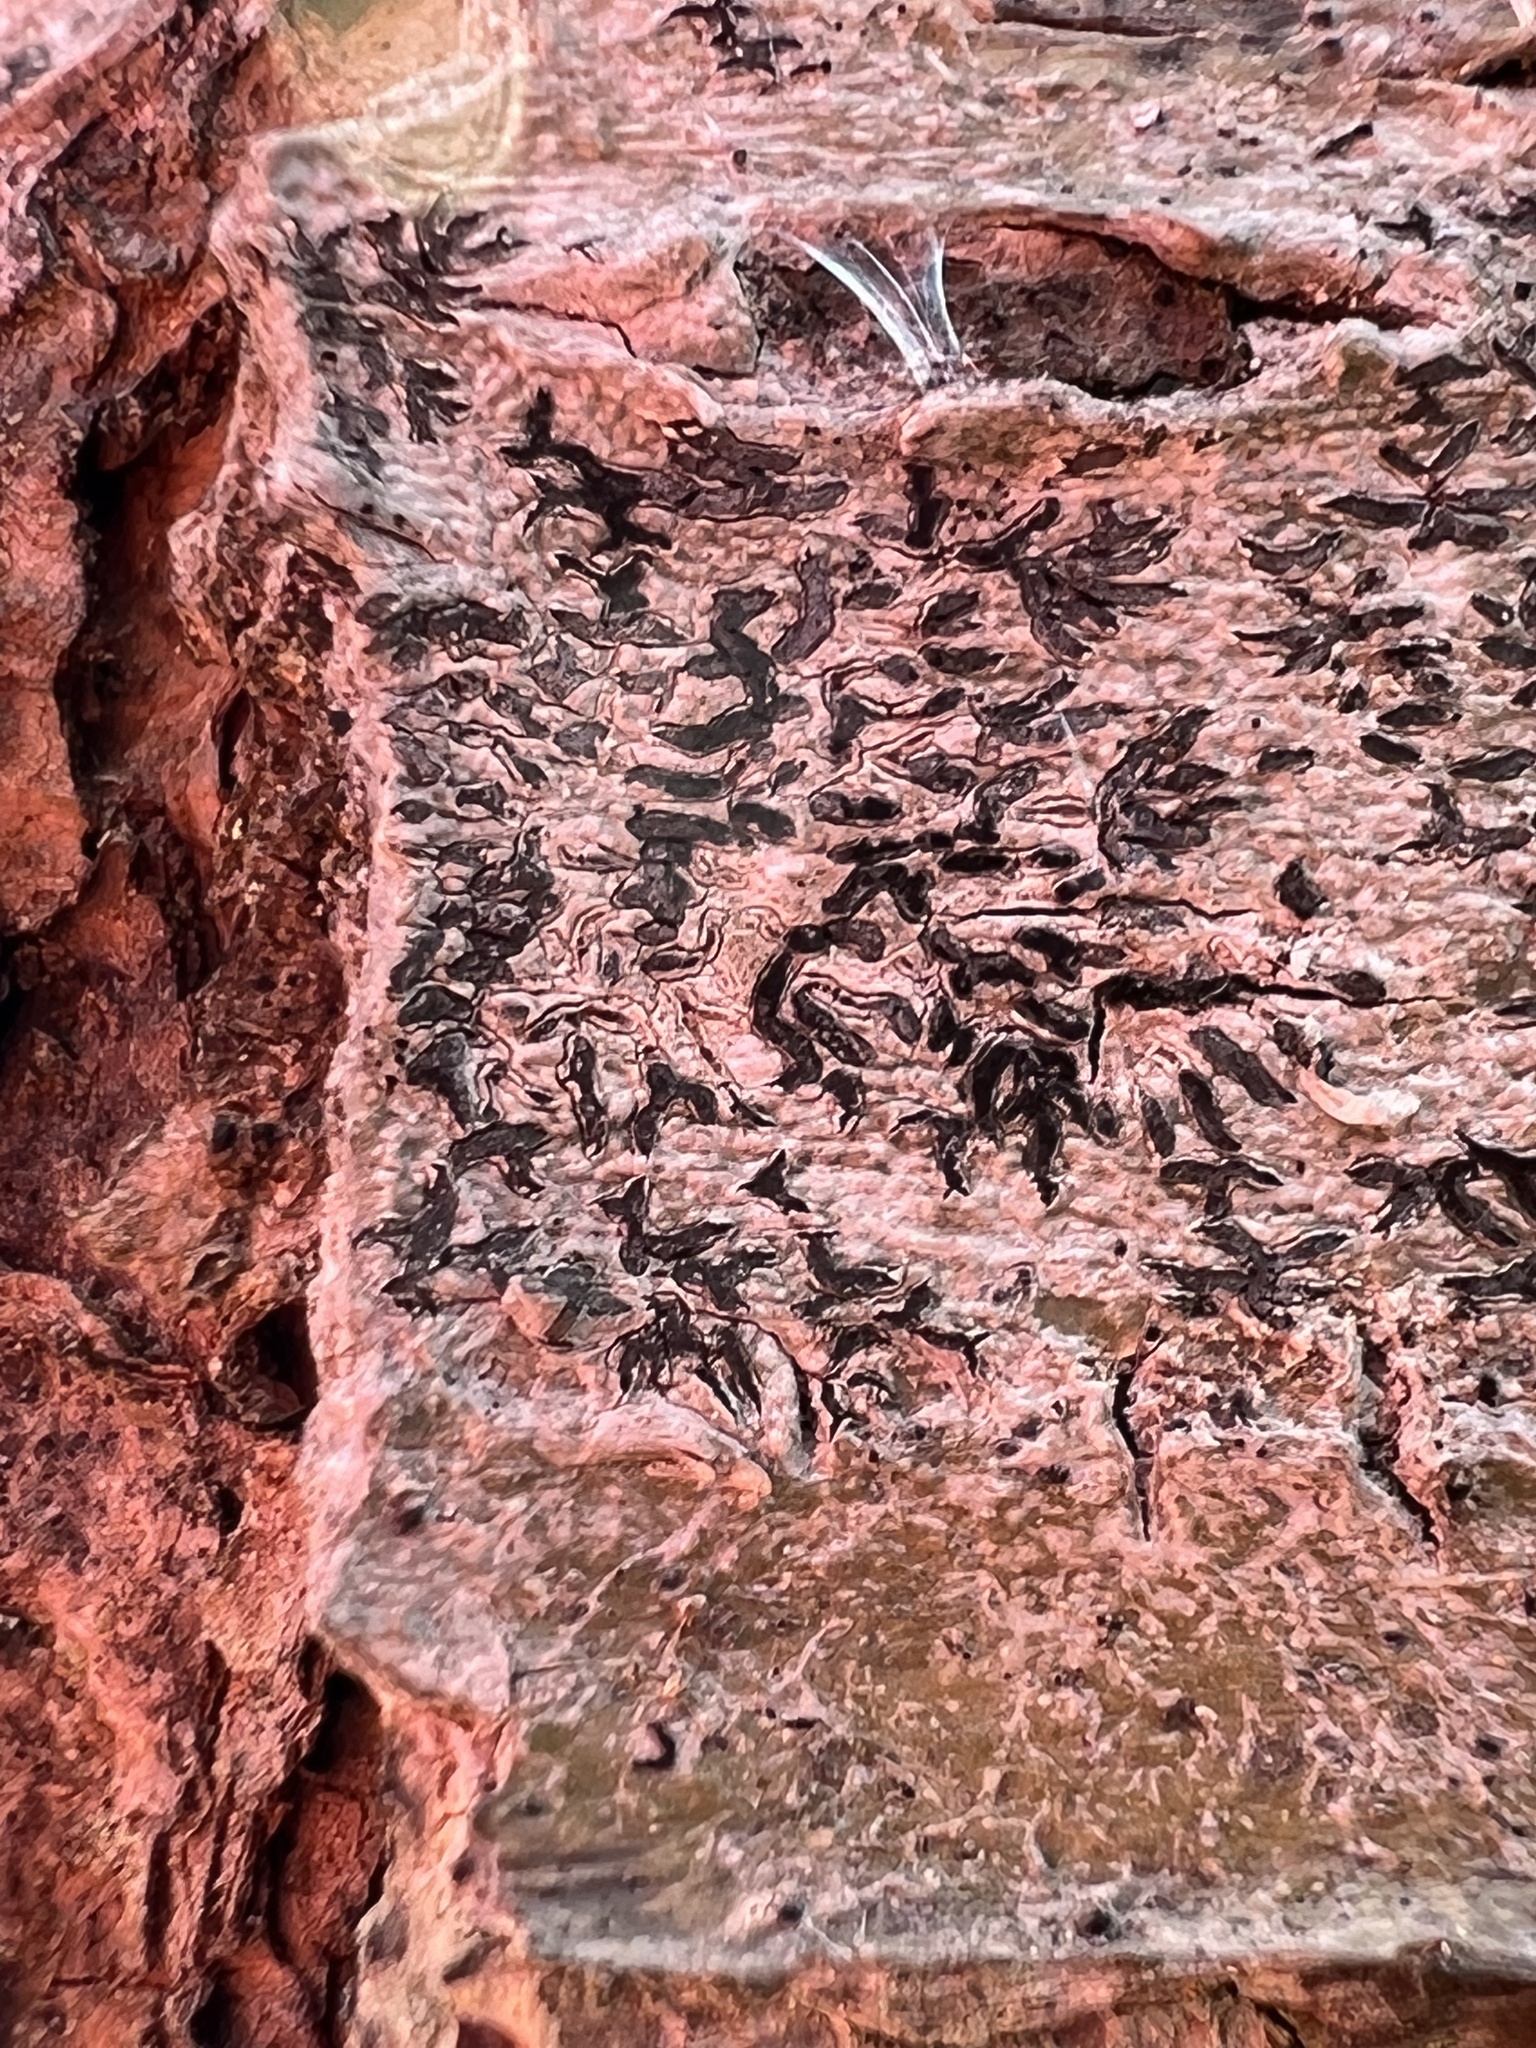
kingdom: Fungi
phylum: Ascomycota
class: Lecanoromycetes
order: Ostropales
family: Graphidaceae
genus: Graphis
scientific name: Graphis scripta
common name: Script lichen
